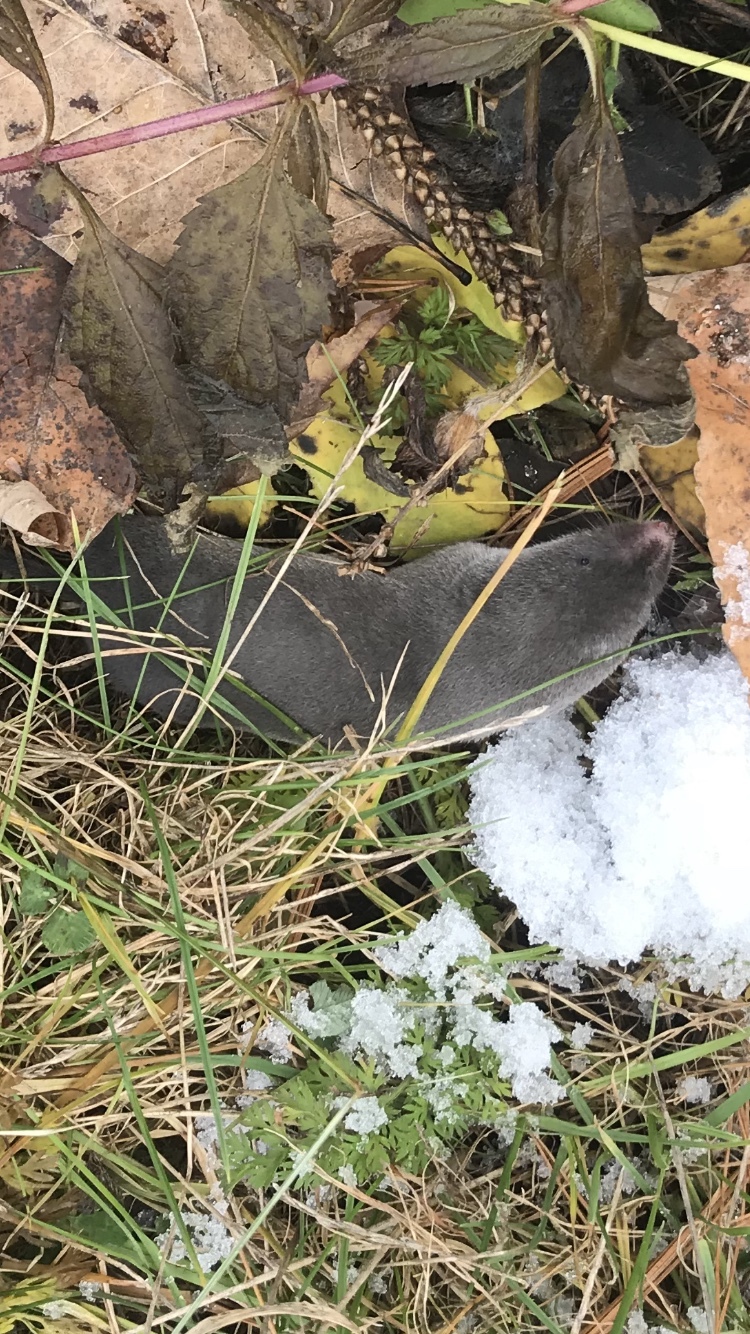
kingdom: Animalia
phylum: Chordata
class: Mammalia
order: Soricomorpha
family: Soricidae
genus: Blarina
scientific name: Blarina brevicauda
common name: Northern short-tailed shrew
